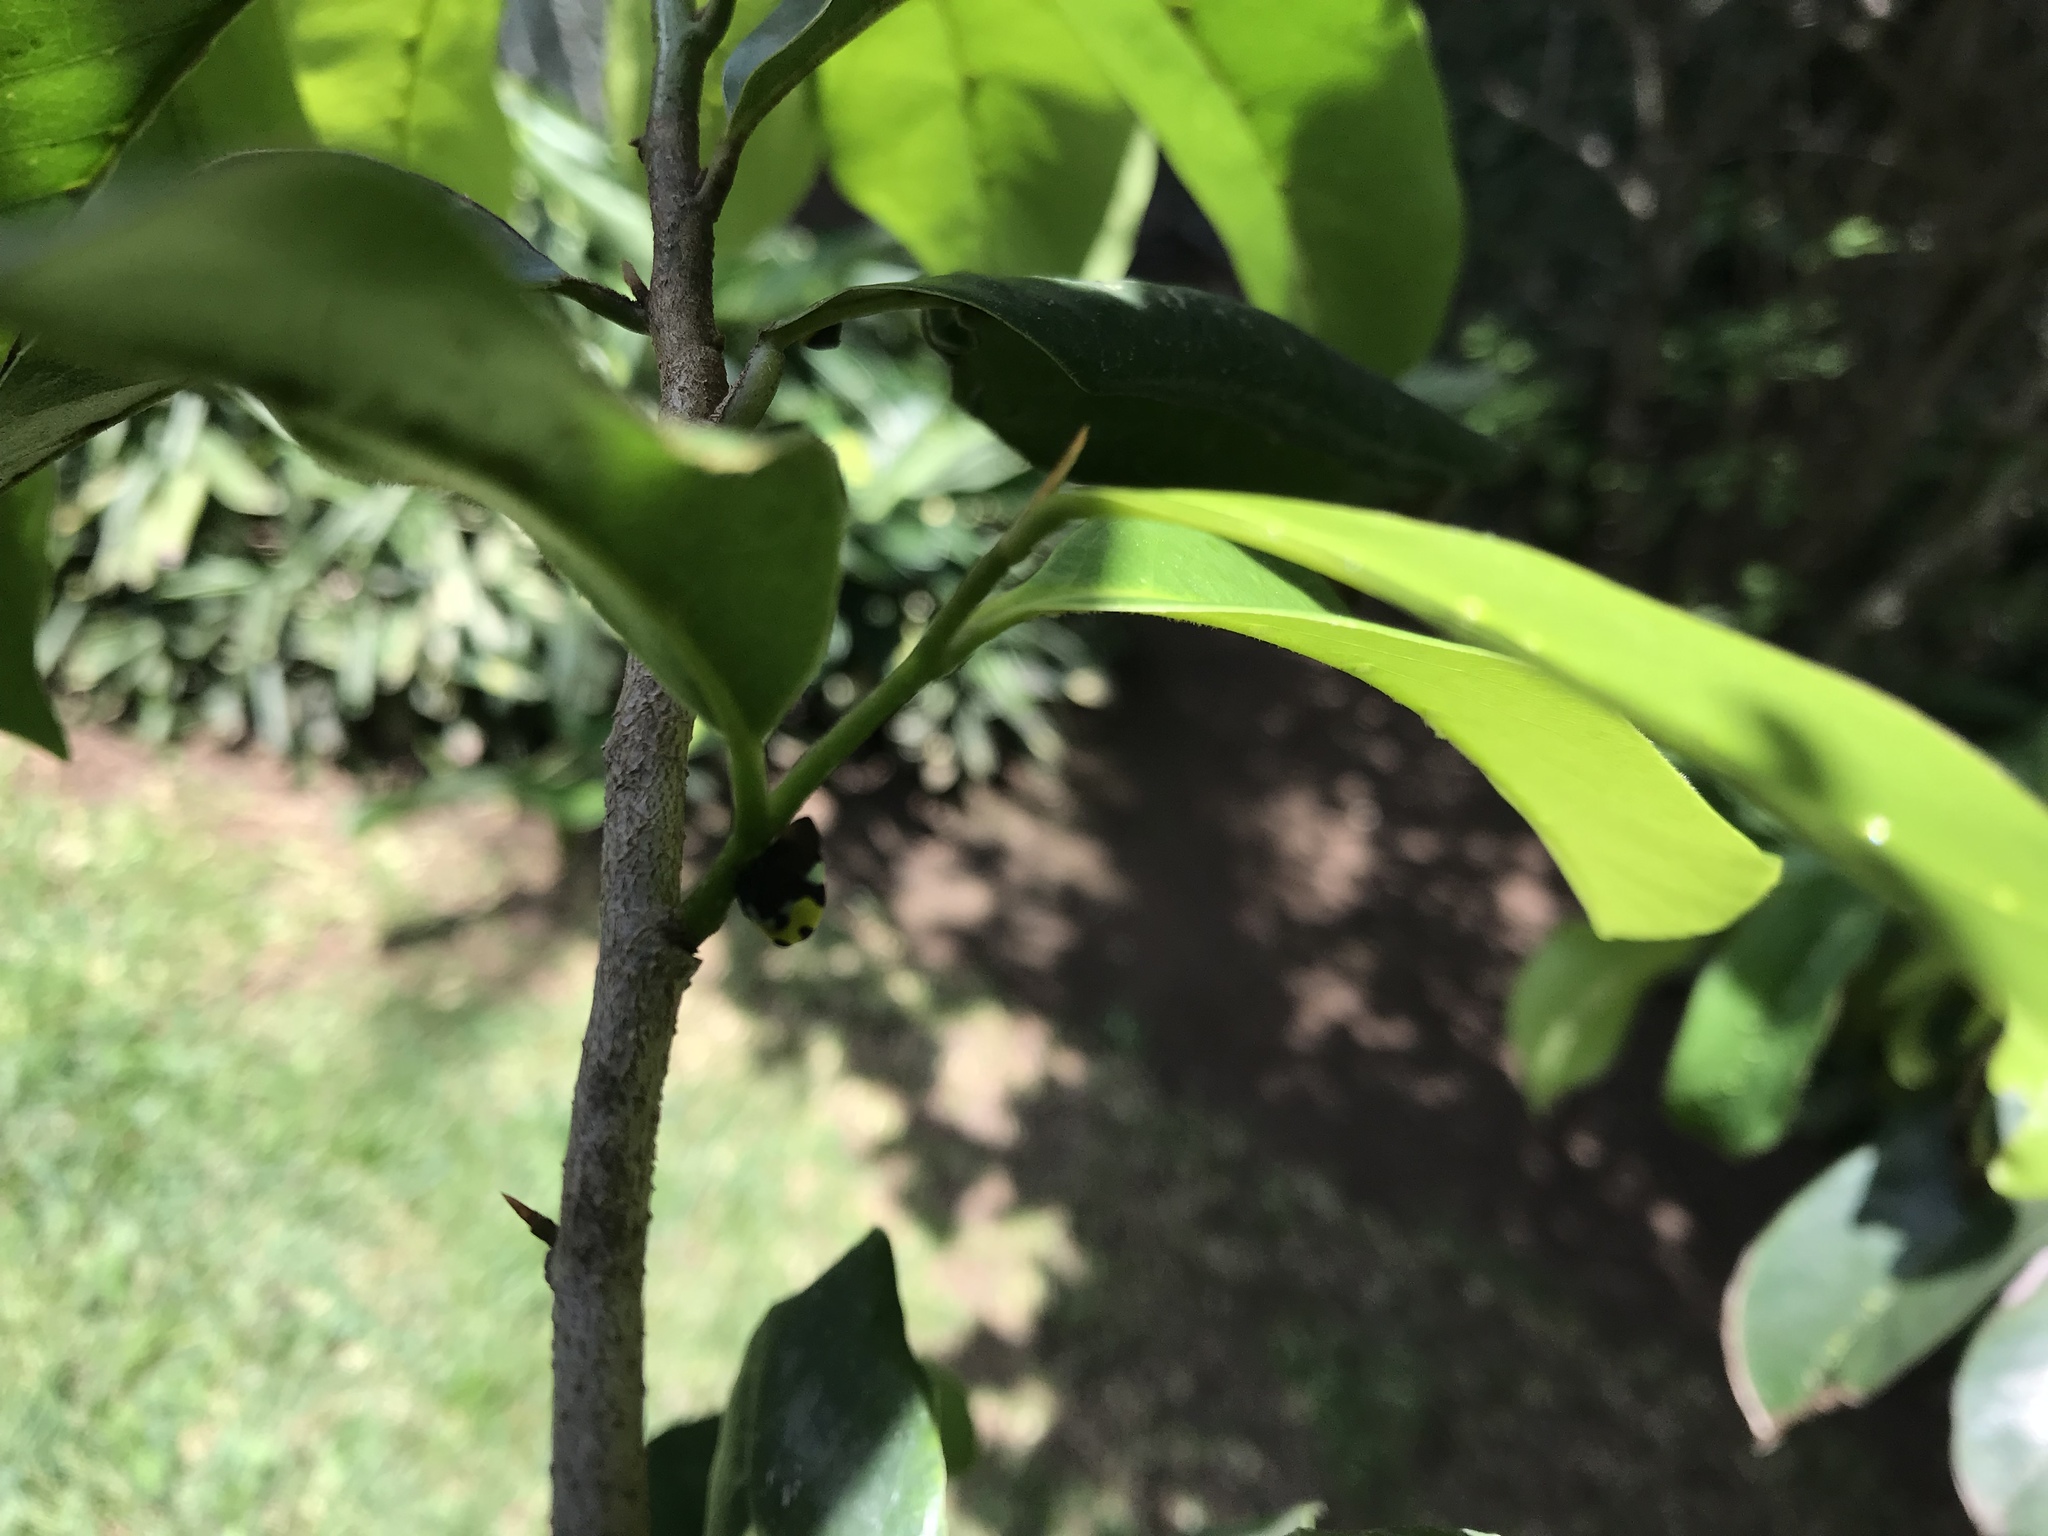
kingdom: Animalia
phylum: Arthropoda
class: Insecta
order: Hemiptera
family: Membracidae
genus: Membracis
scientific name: Membracis mexicana
